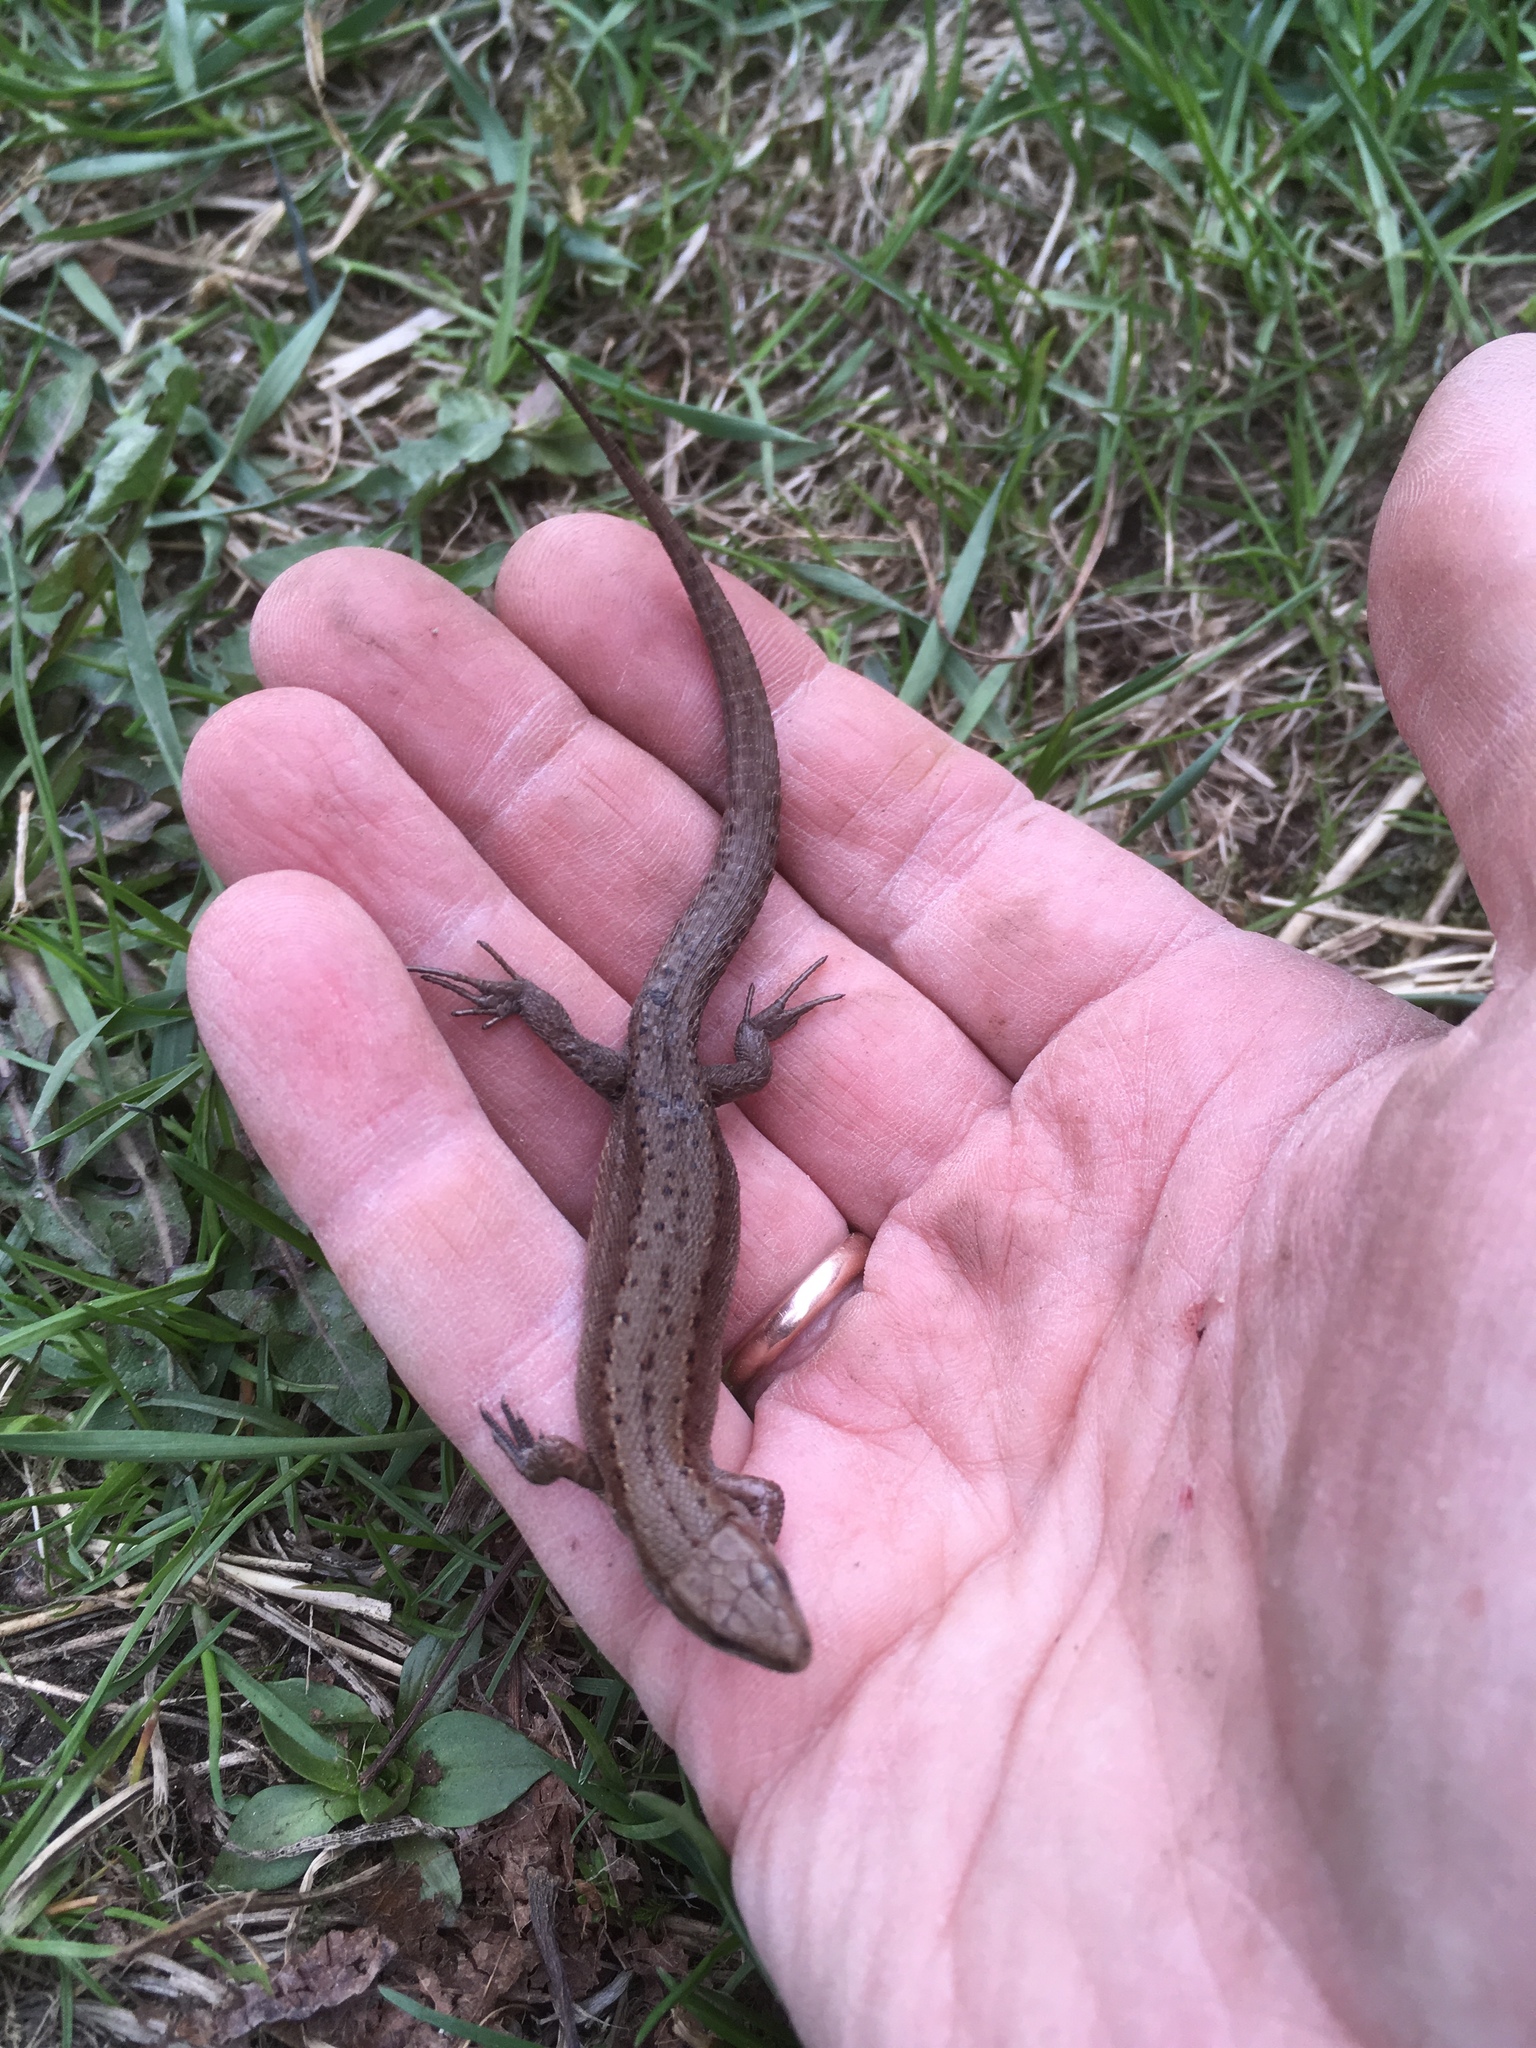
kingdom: Animalia
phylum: Chordata
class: Squamata
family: Lacertidae
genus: Zootoca
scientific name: Zootoca vivipara
